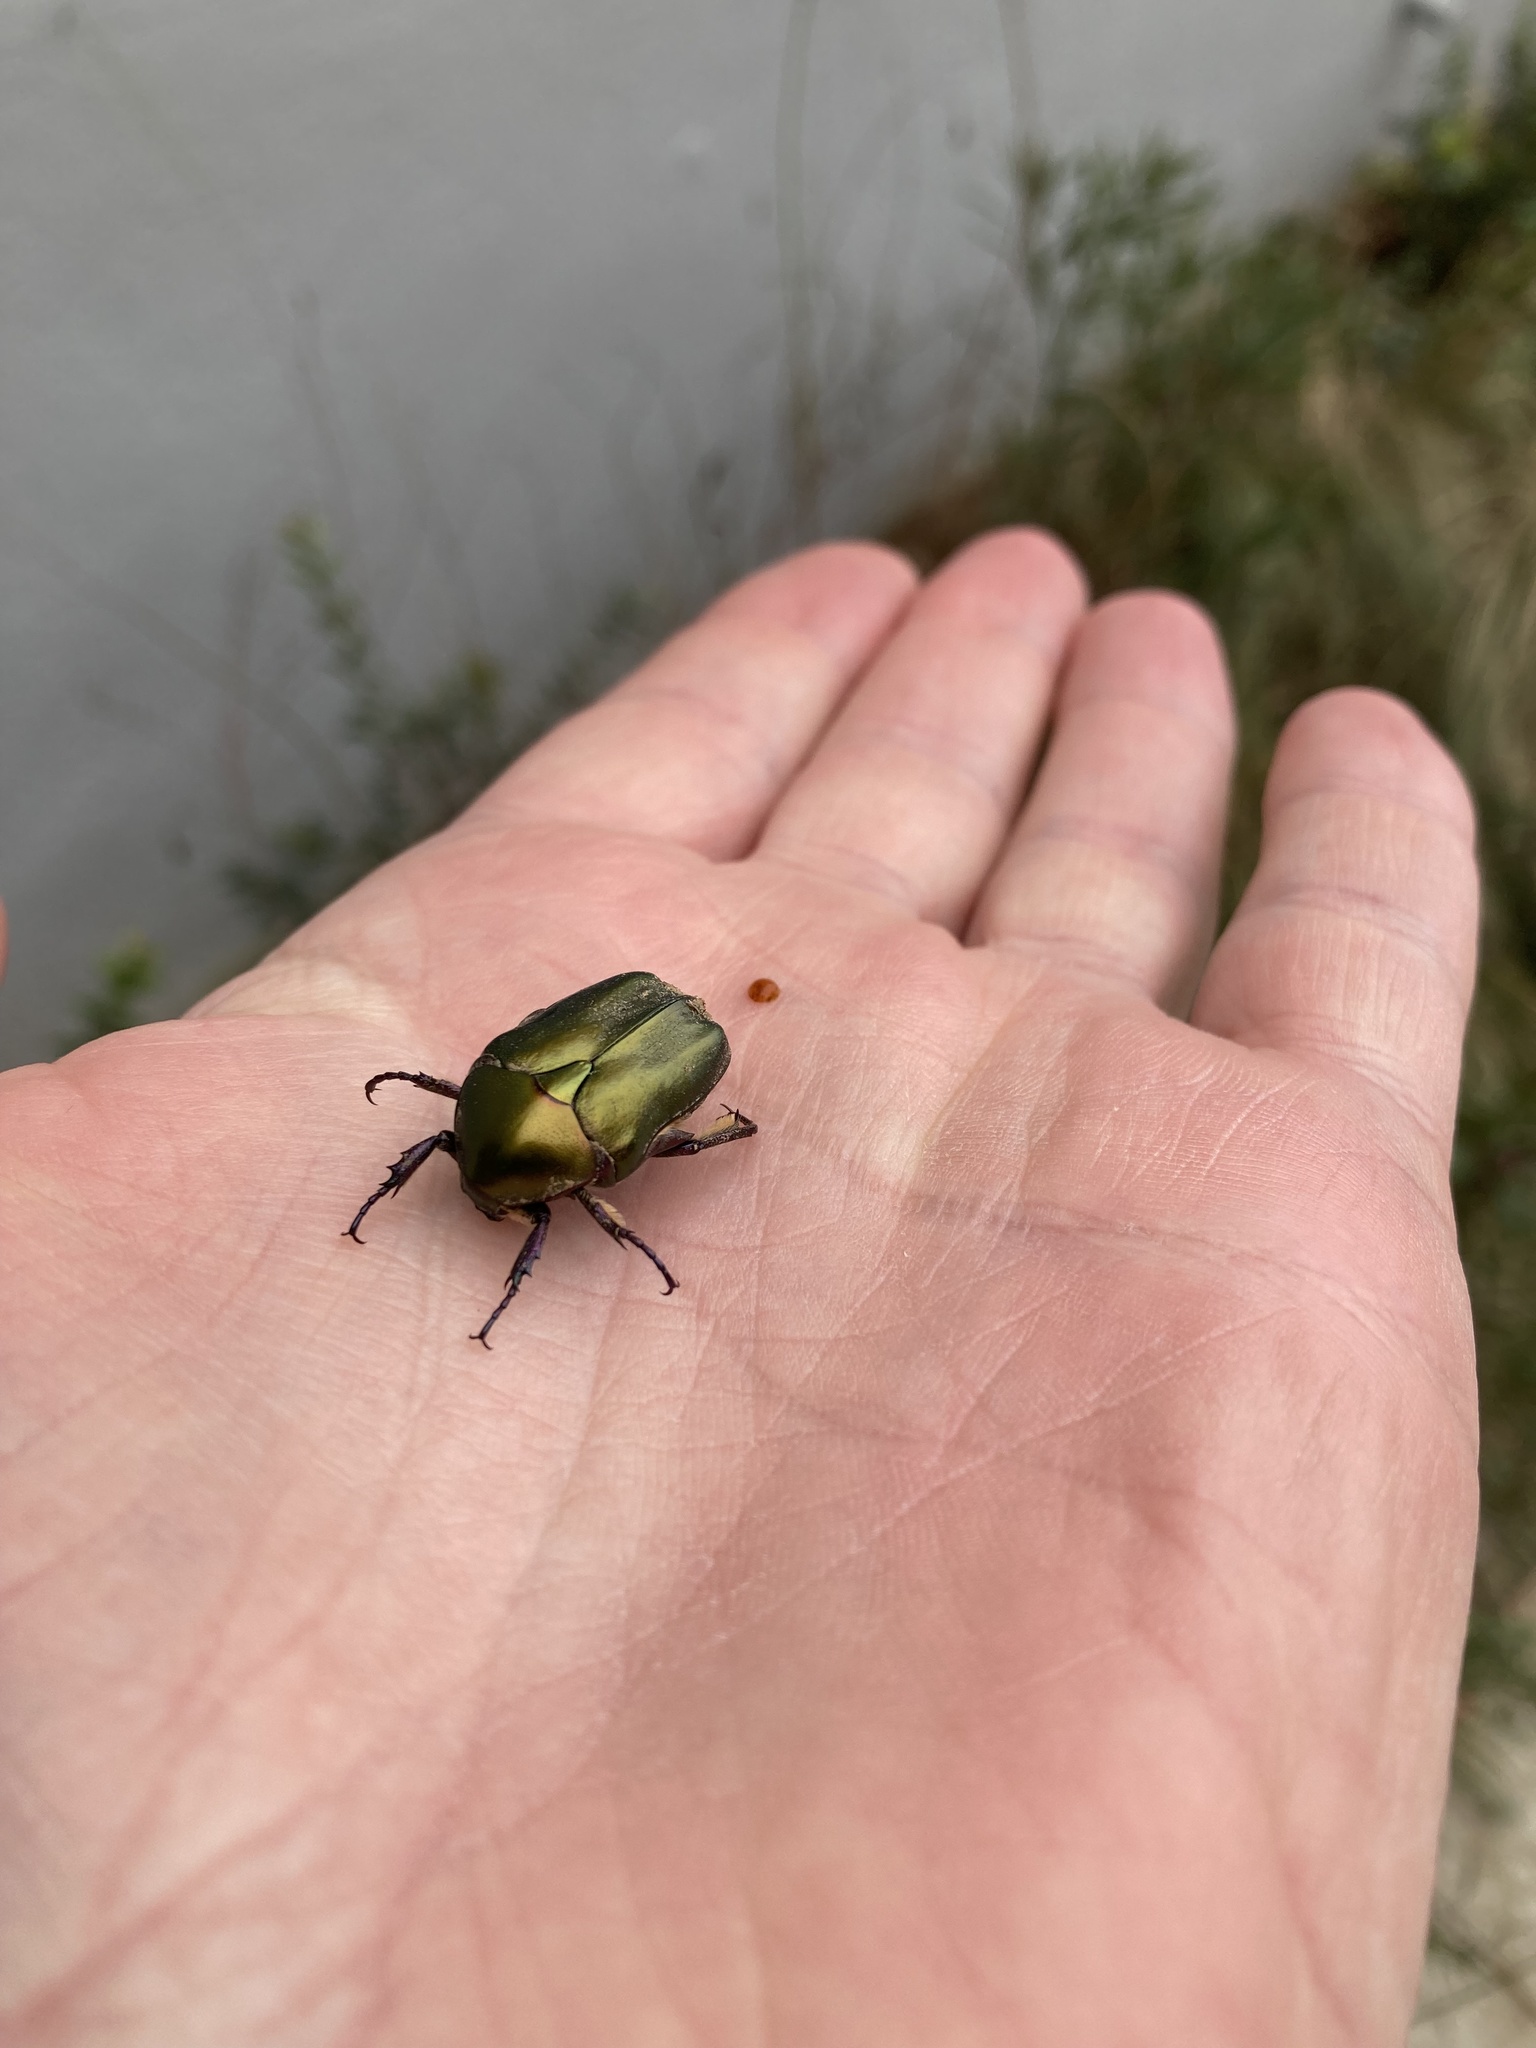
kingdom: Animalia
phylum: Arthropoda
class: Insecta
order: Coleoptera
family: Scarabaeidae
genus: Protaetia
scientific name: Protaetia cuprea
